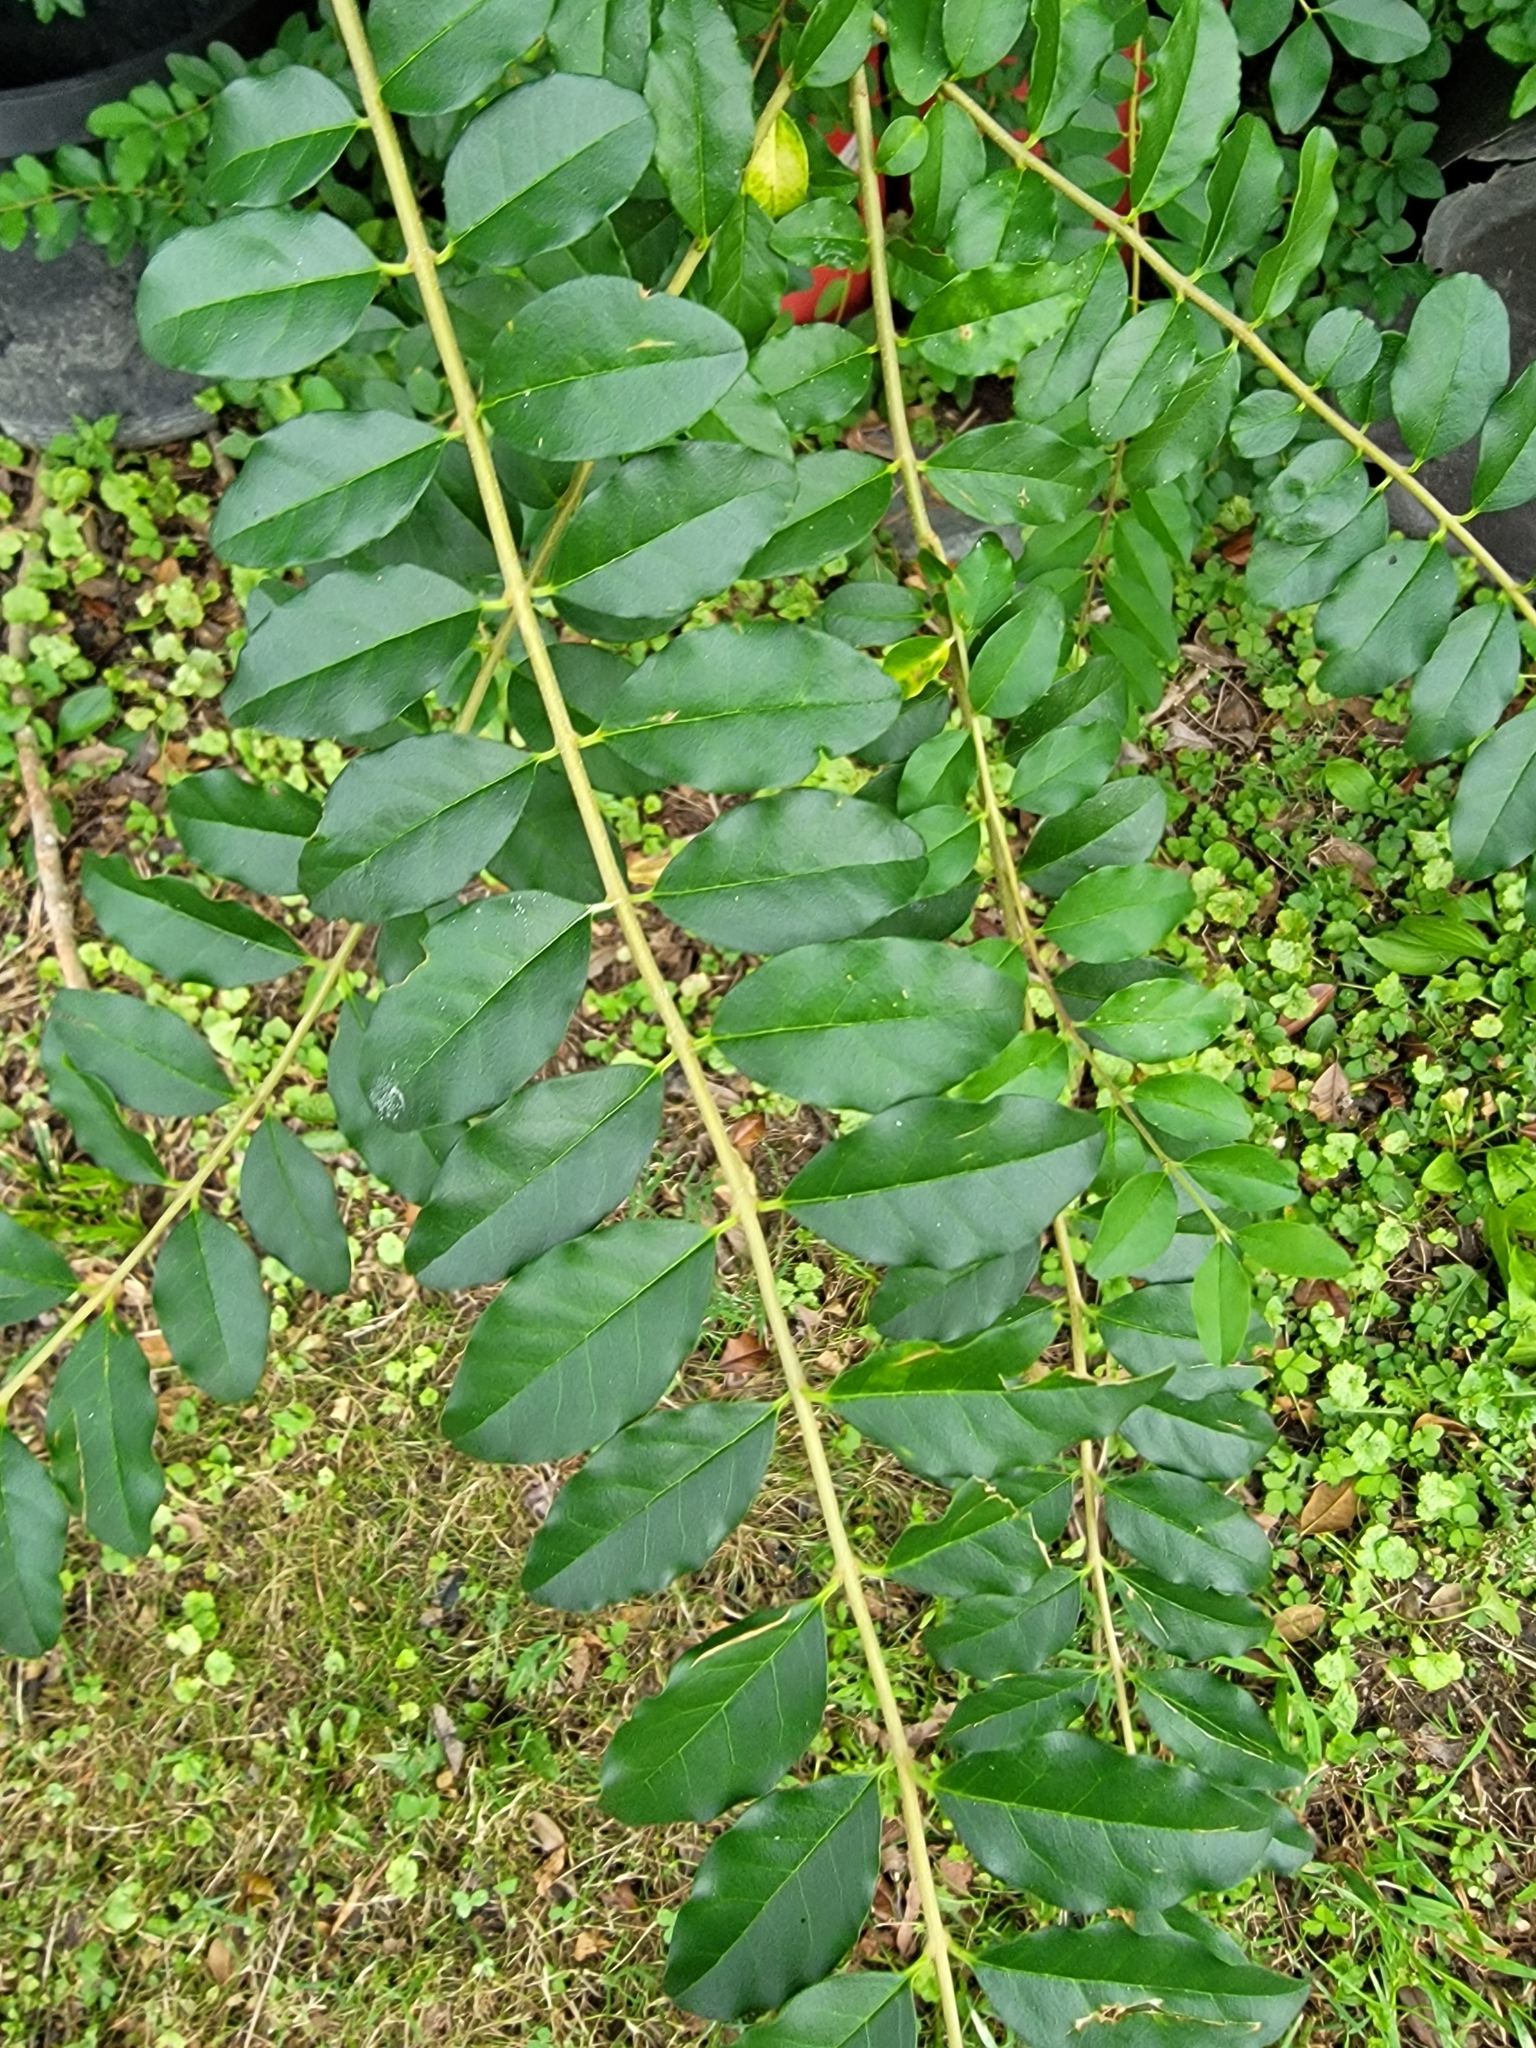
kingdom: Plantae
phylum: Tracheophyta
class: Magnoliopsida
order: Lamiales
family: Oleaceae
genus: Ligustrum
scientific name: Ligustrum sinense
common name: Chinese privet
